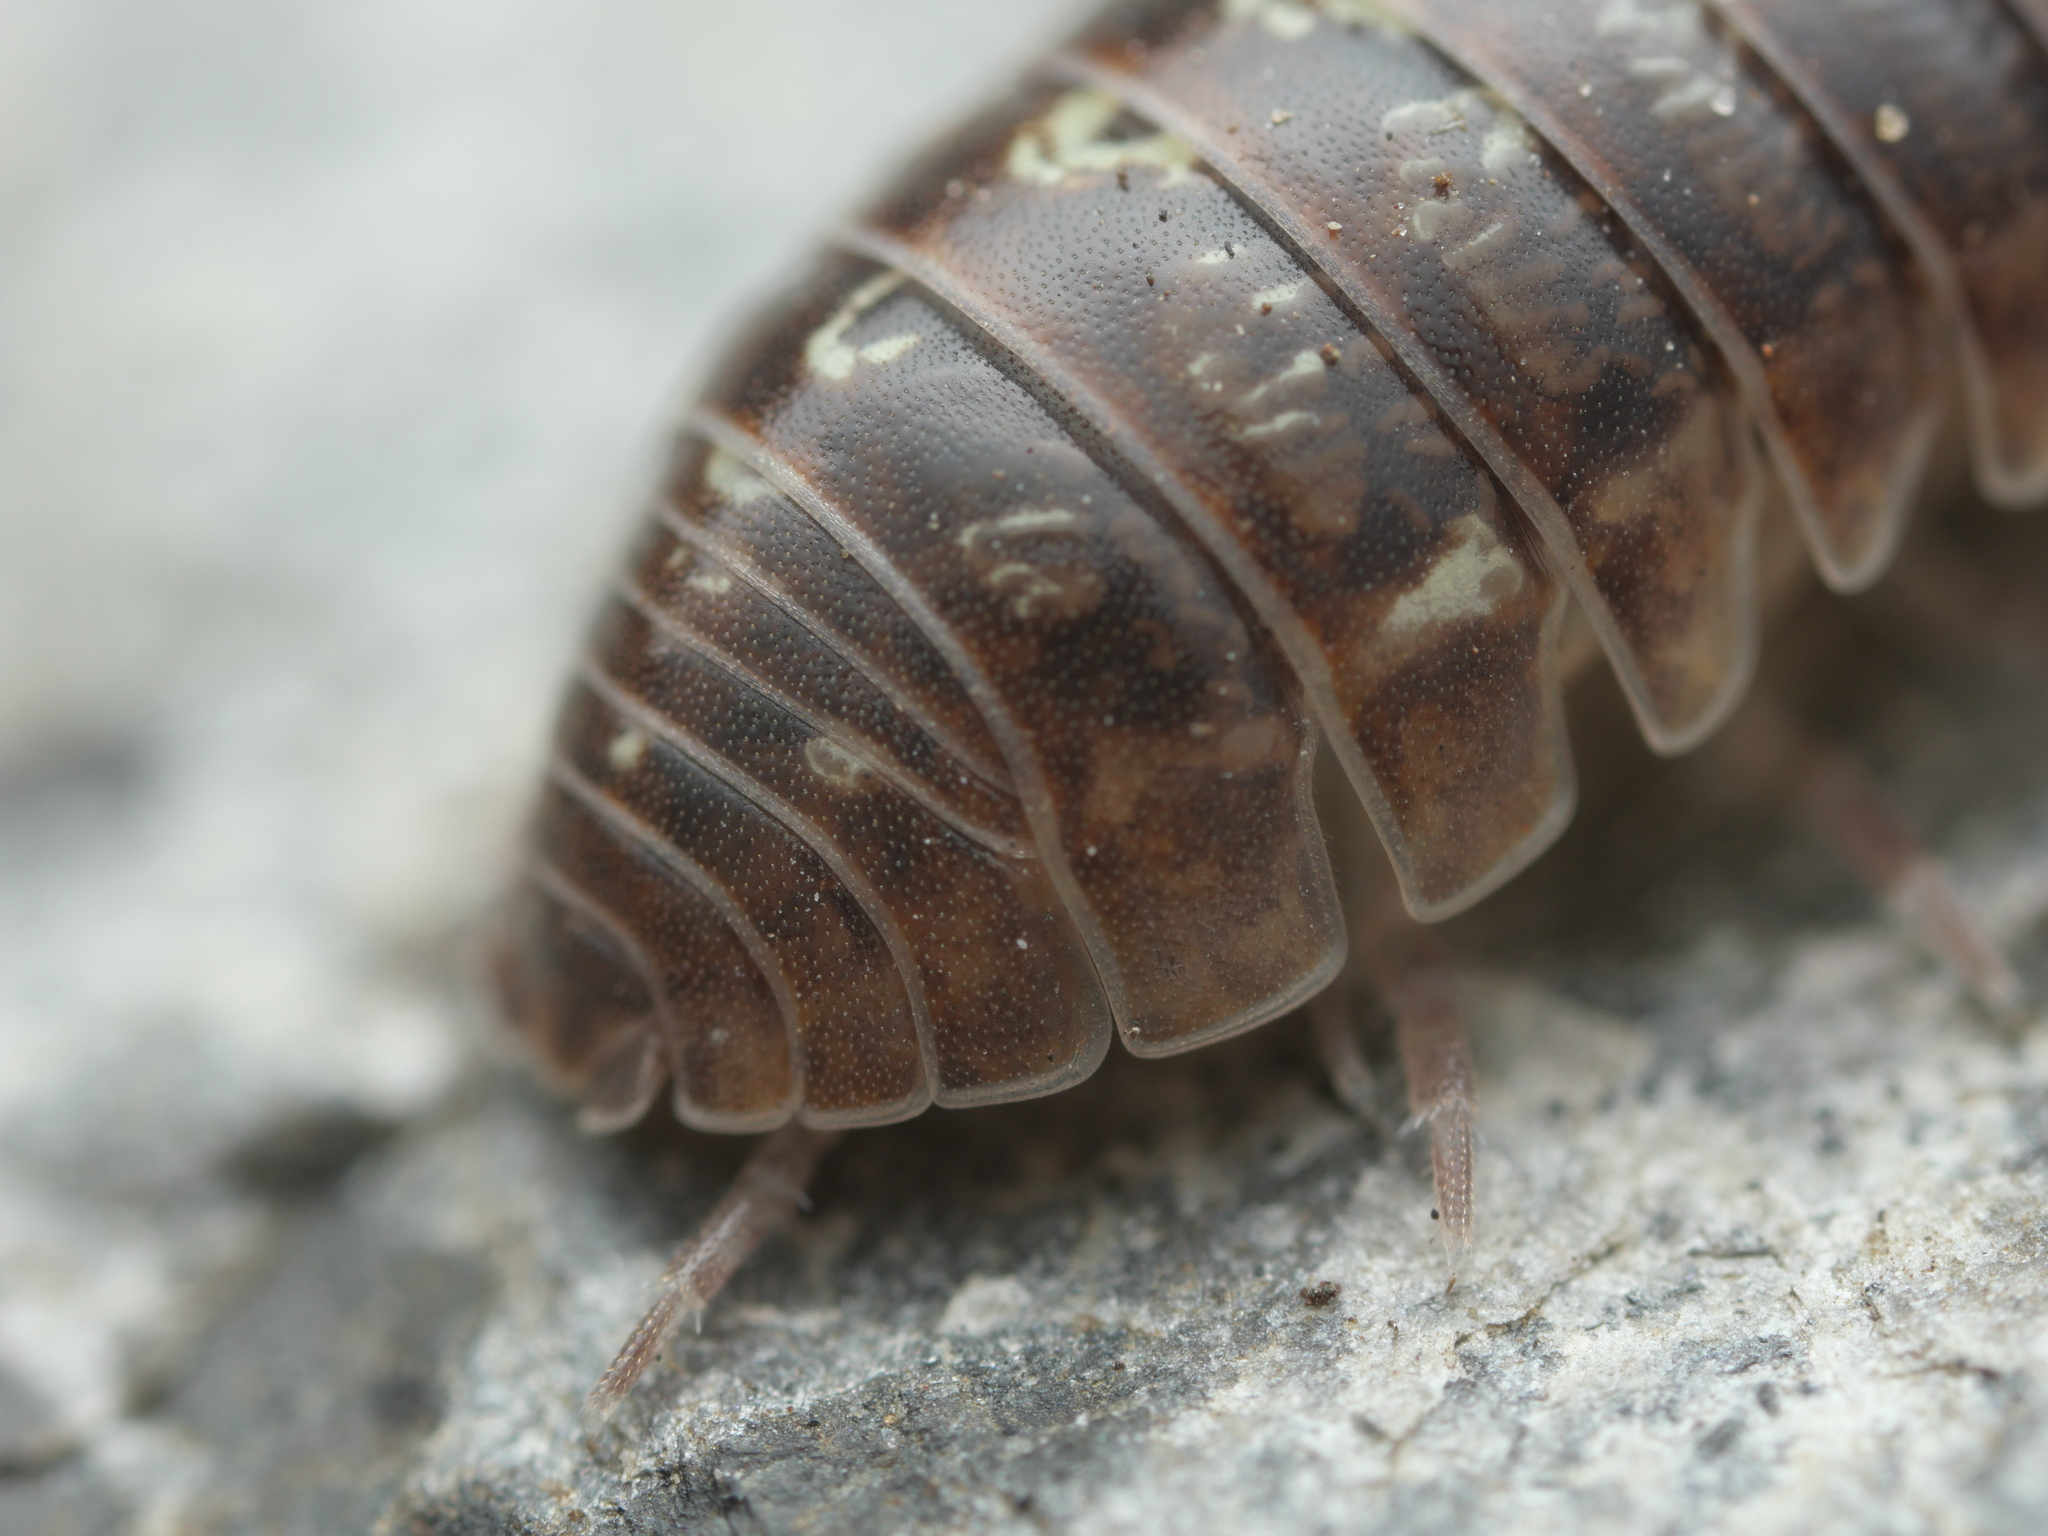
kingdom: Animalia
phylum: Arthropoda
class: Malacostraca
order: Isopoda
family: Armadillidiidae
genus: Armadillidium
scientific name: Armadillidium vulgare
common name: Common pill woodlouse
